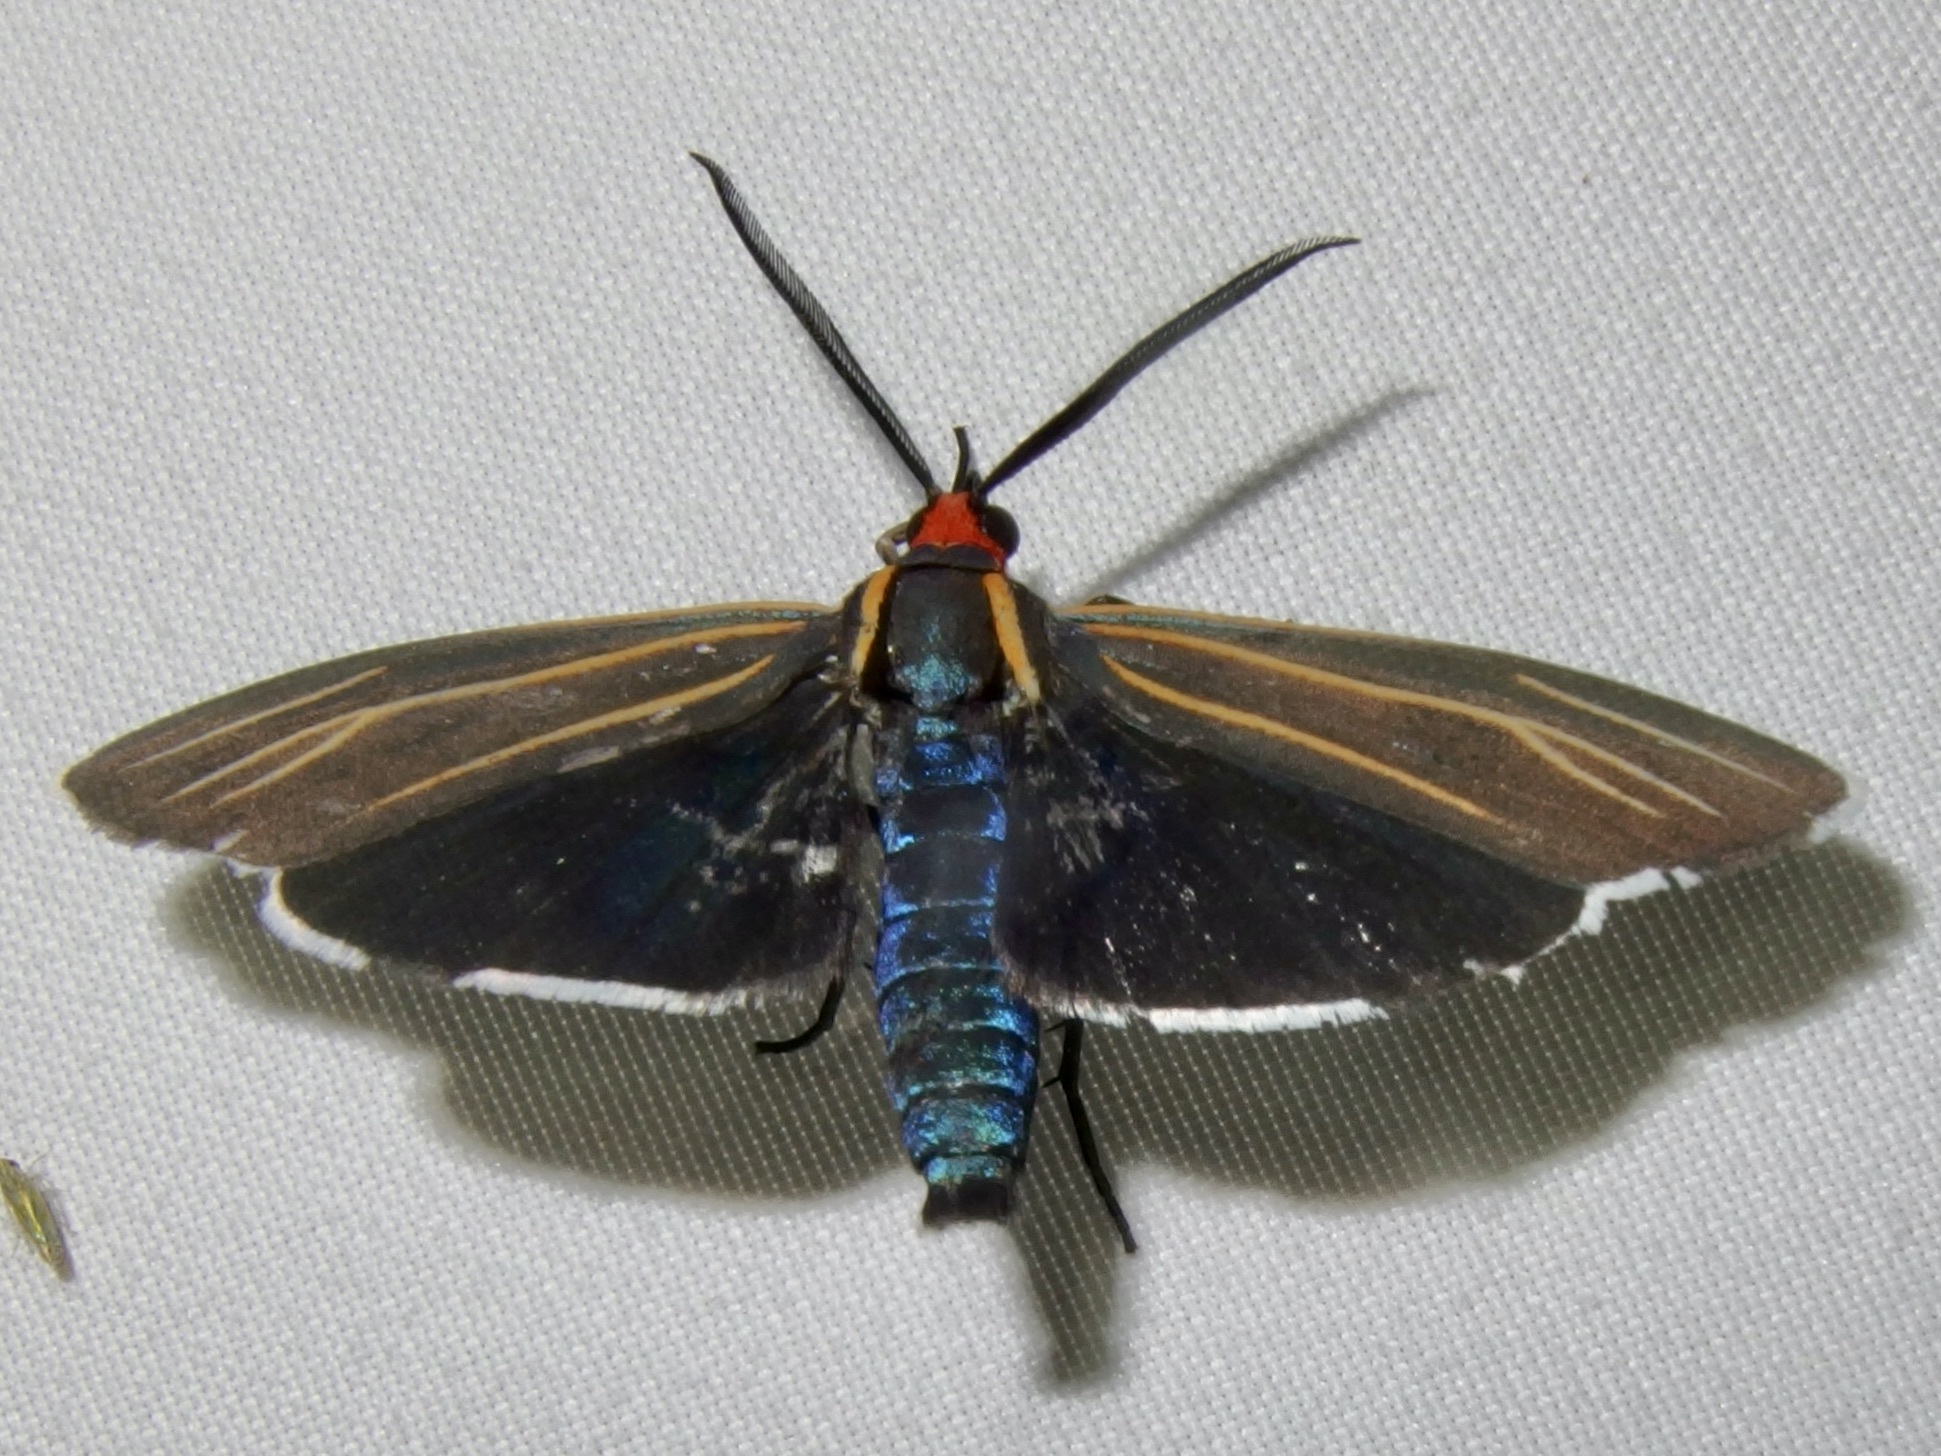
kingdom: Animalia
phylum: Arthropoda
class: Insecta
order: Lepidoptera
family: Erebidae
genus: Ctenucha
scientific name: Ctenucha venosa
